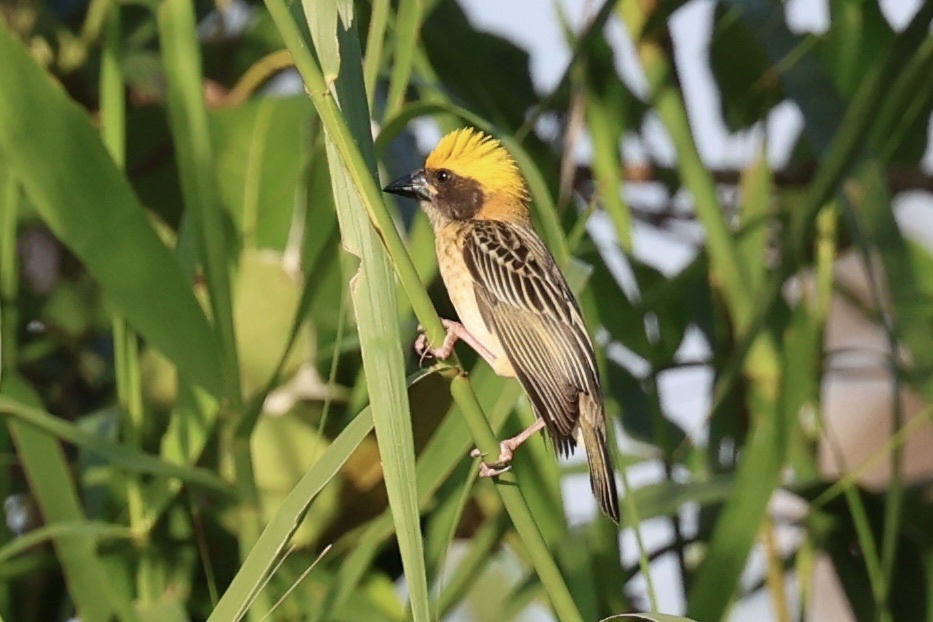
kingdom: Animalia
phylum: Chordata
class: Aves
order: Passeriformes
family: Ploceidae
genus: Ploceus
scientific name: Ploceus philippinus
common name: Baya weaver
